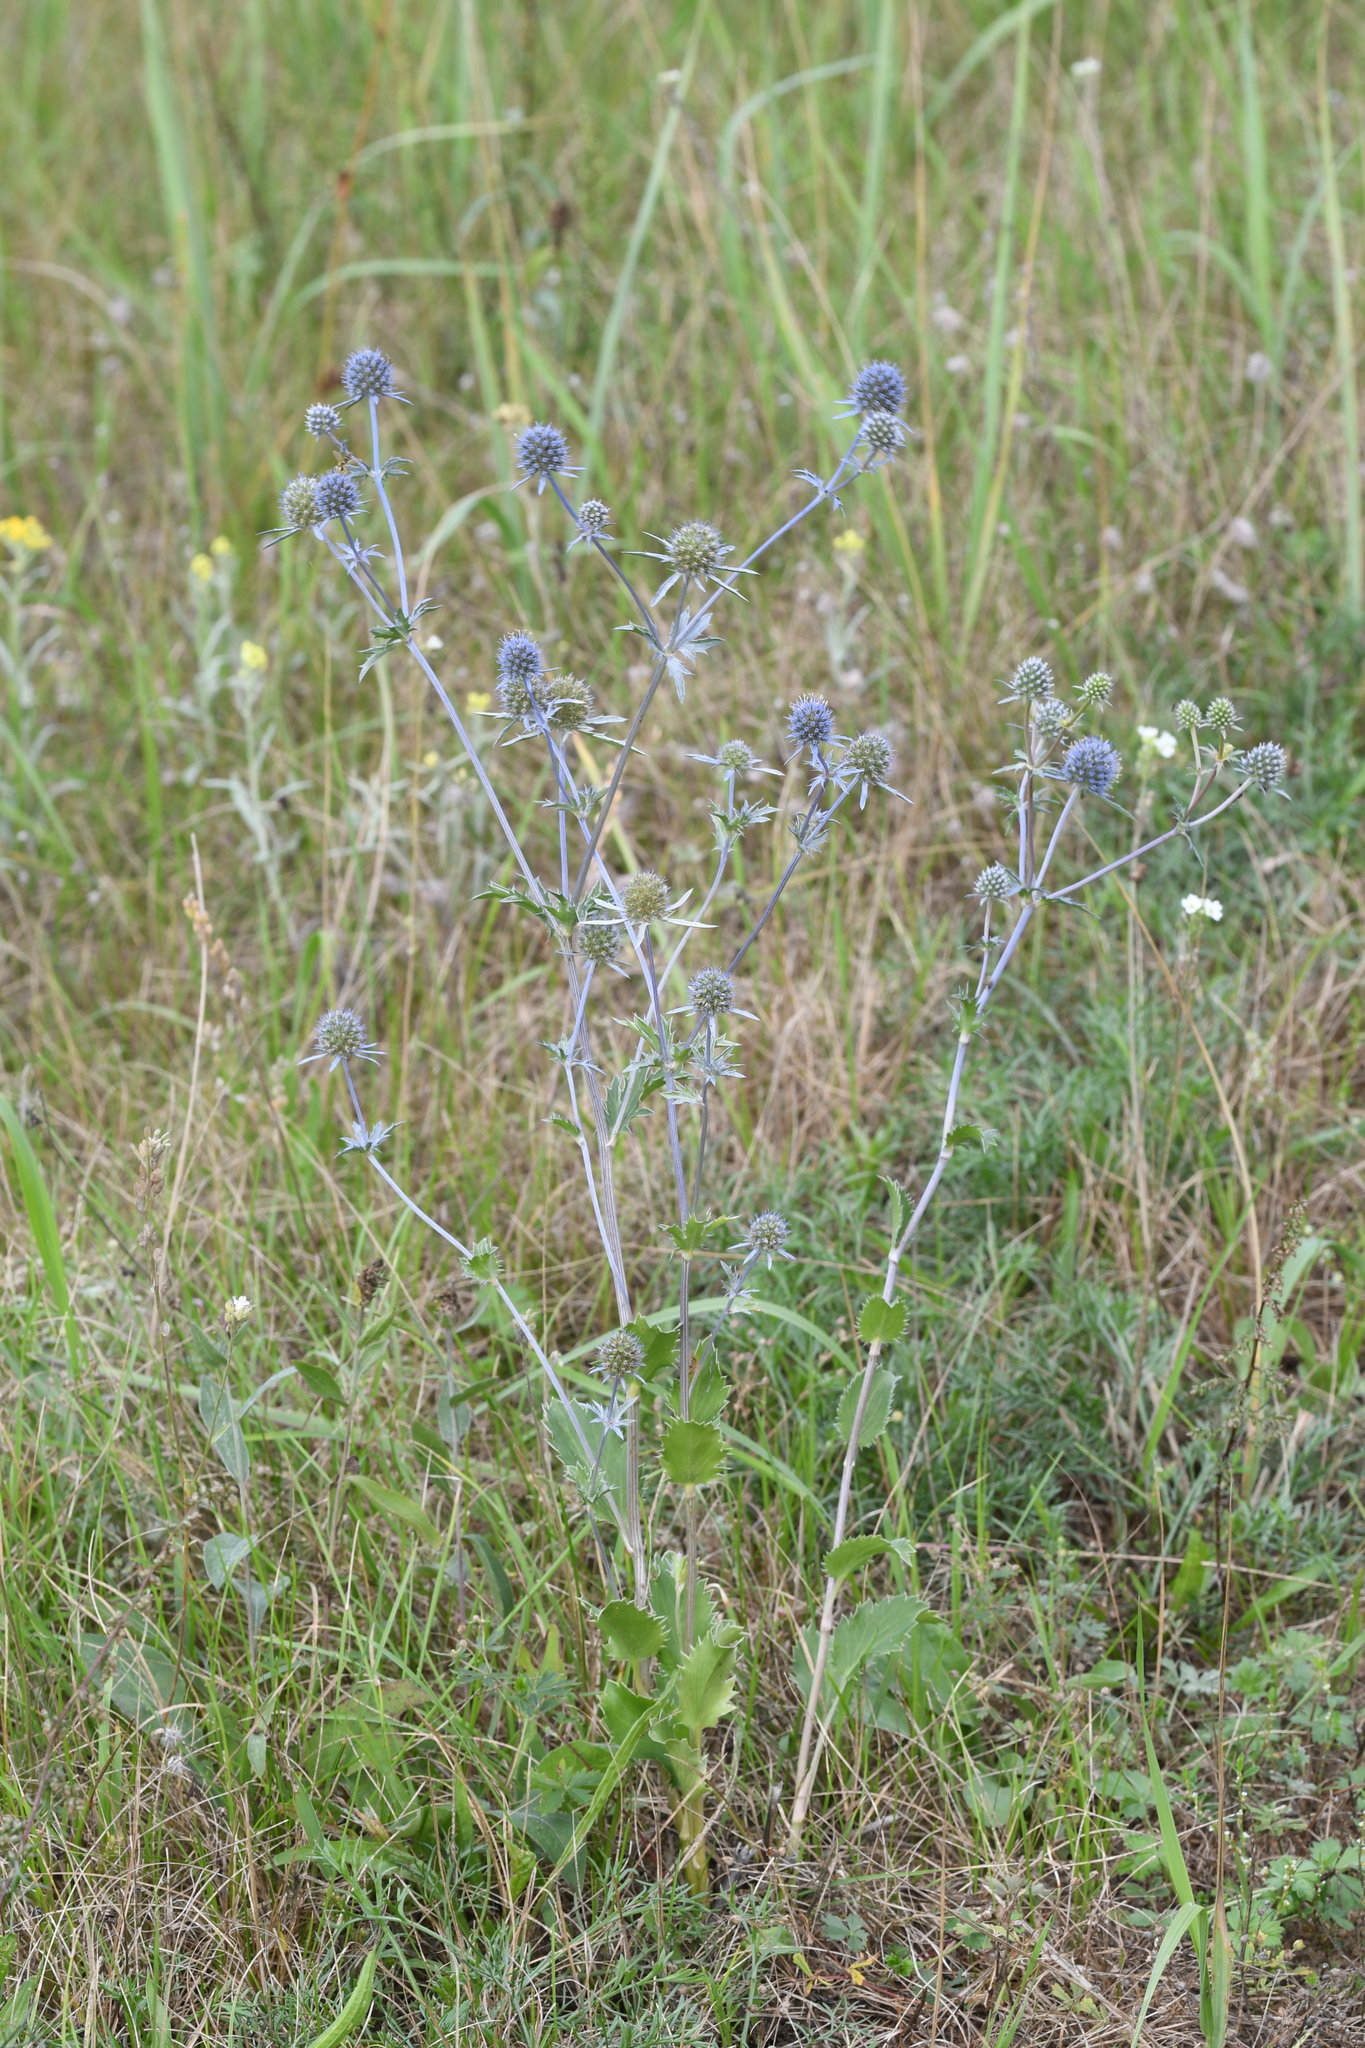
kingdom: Plantae
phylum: Tracheophyta
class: Magnoliopsida
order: Apiales
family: Apiaceae
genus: Eryngium
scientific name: Eryngium planum
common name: Blue eryngo
